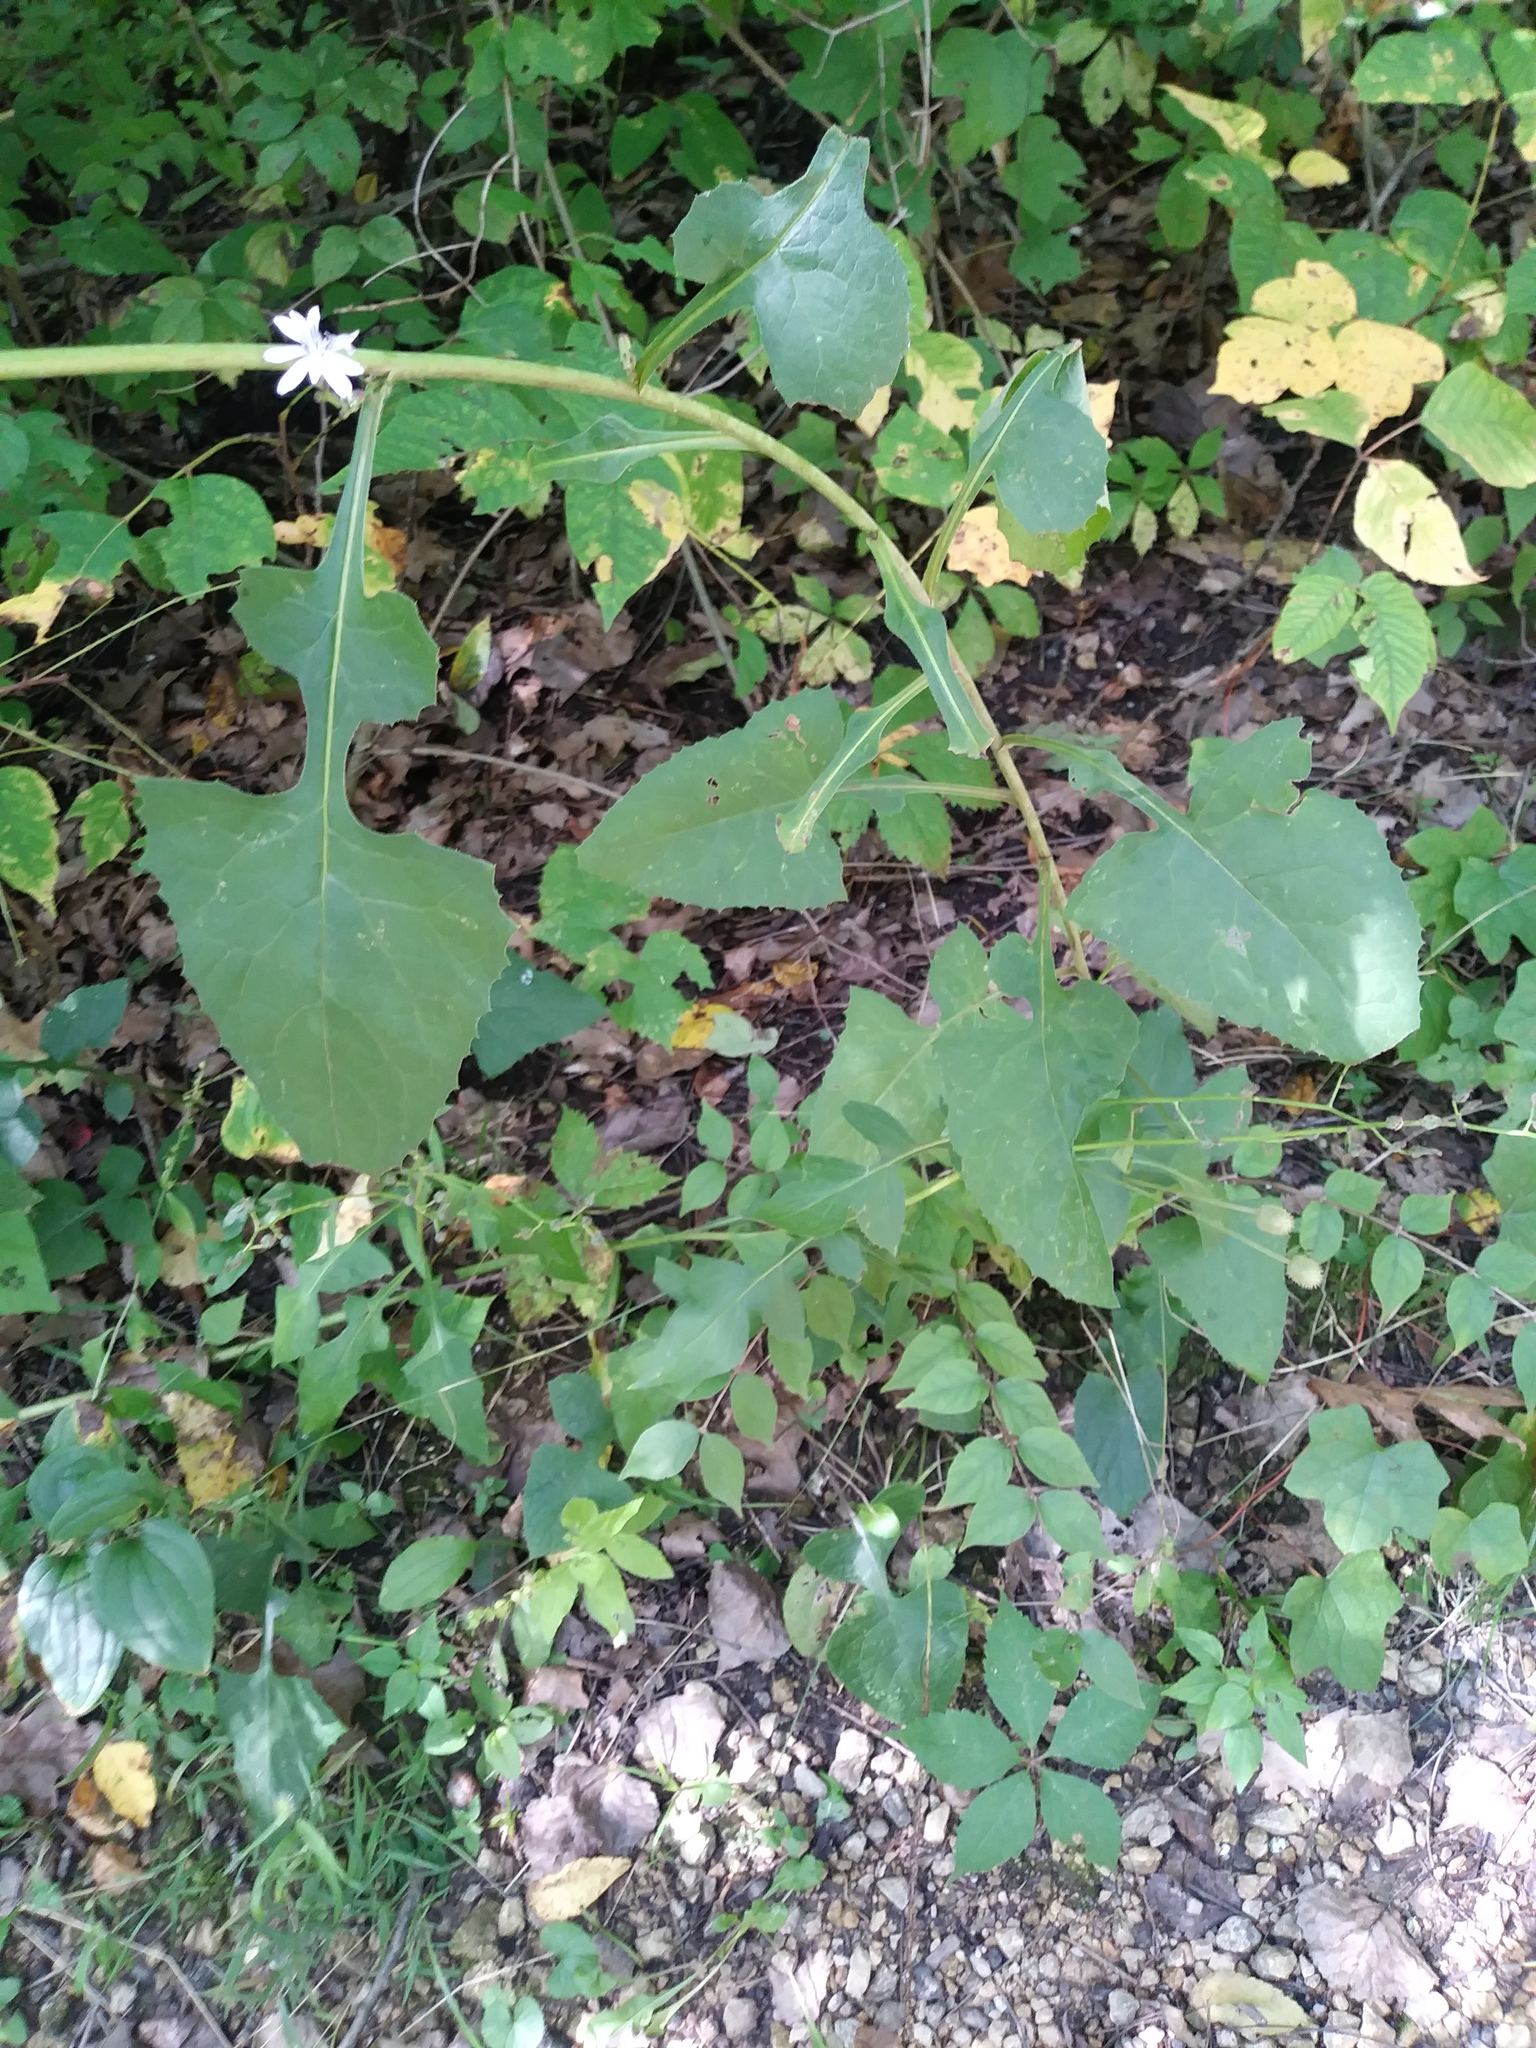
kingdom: Plantae
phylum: Tracheophyta
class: Magnoliopsida
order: Asterales
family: Asteraceae
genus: Lactuca
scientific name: Lactuca floridana
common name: Woodland lettuce
